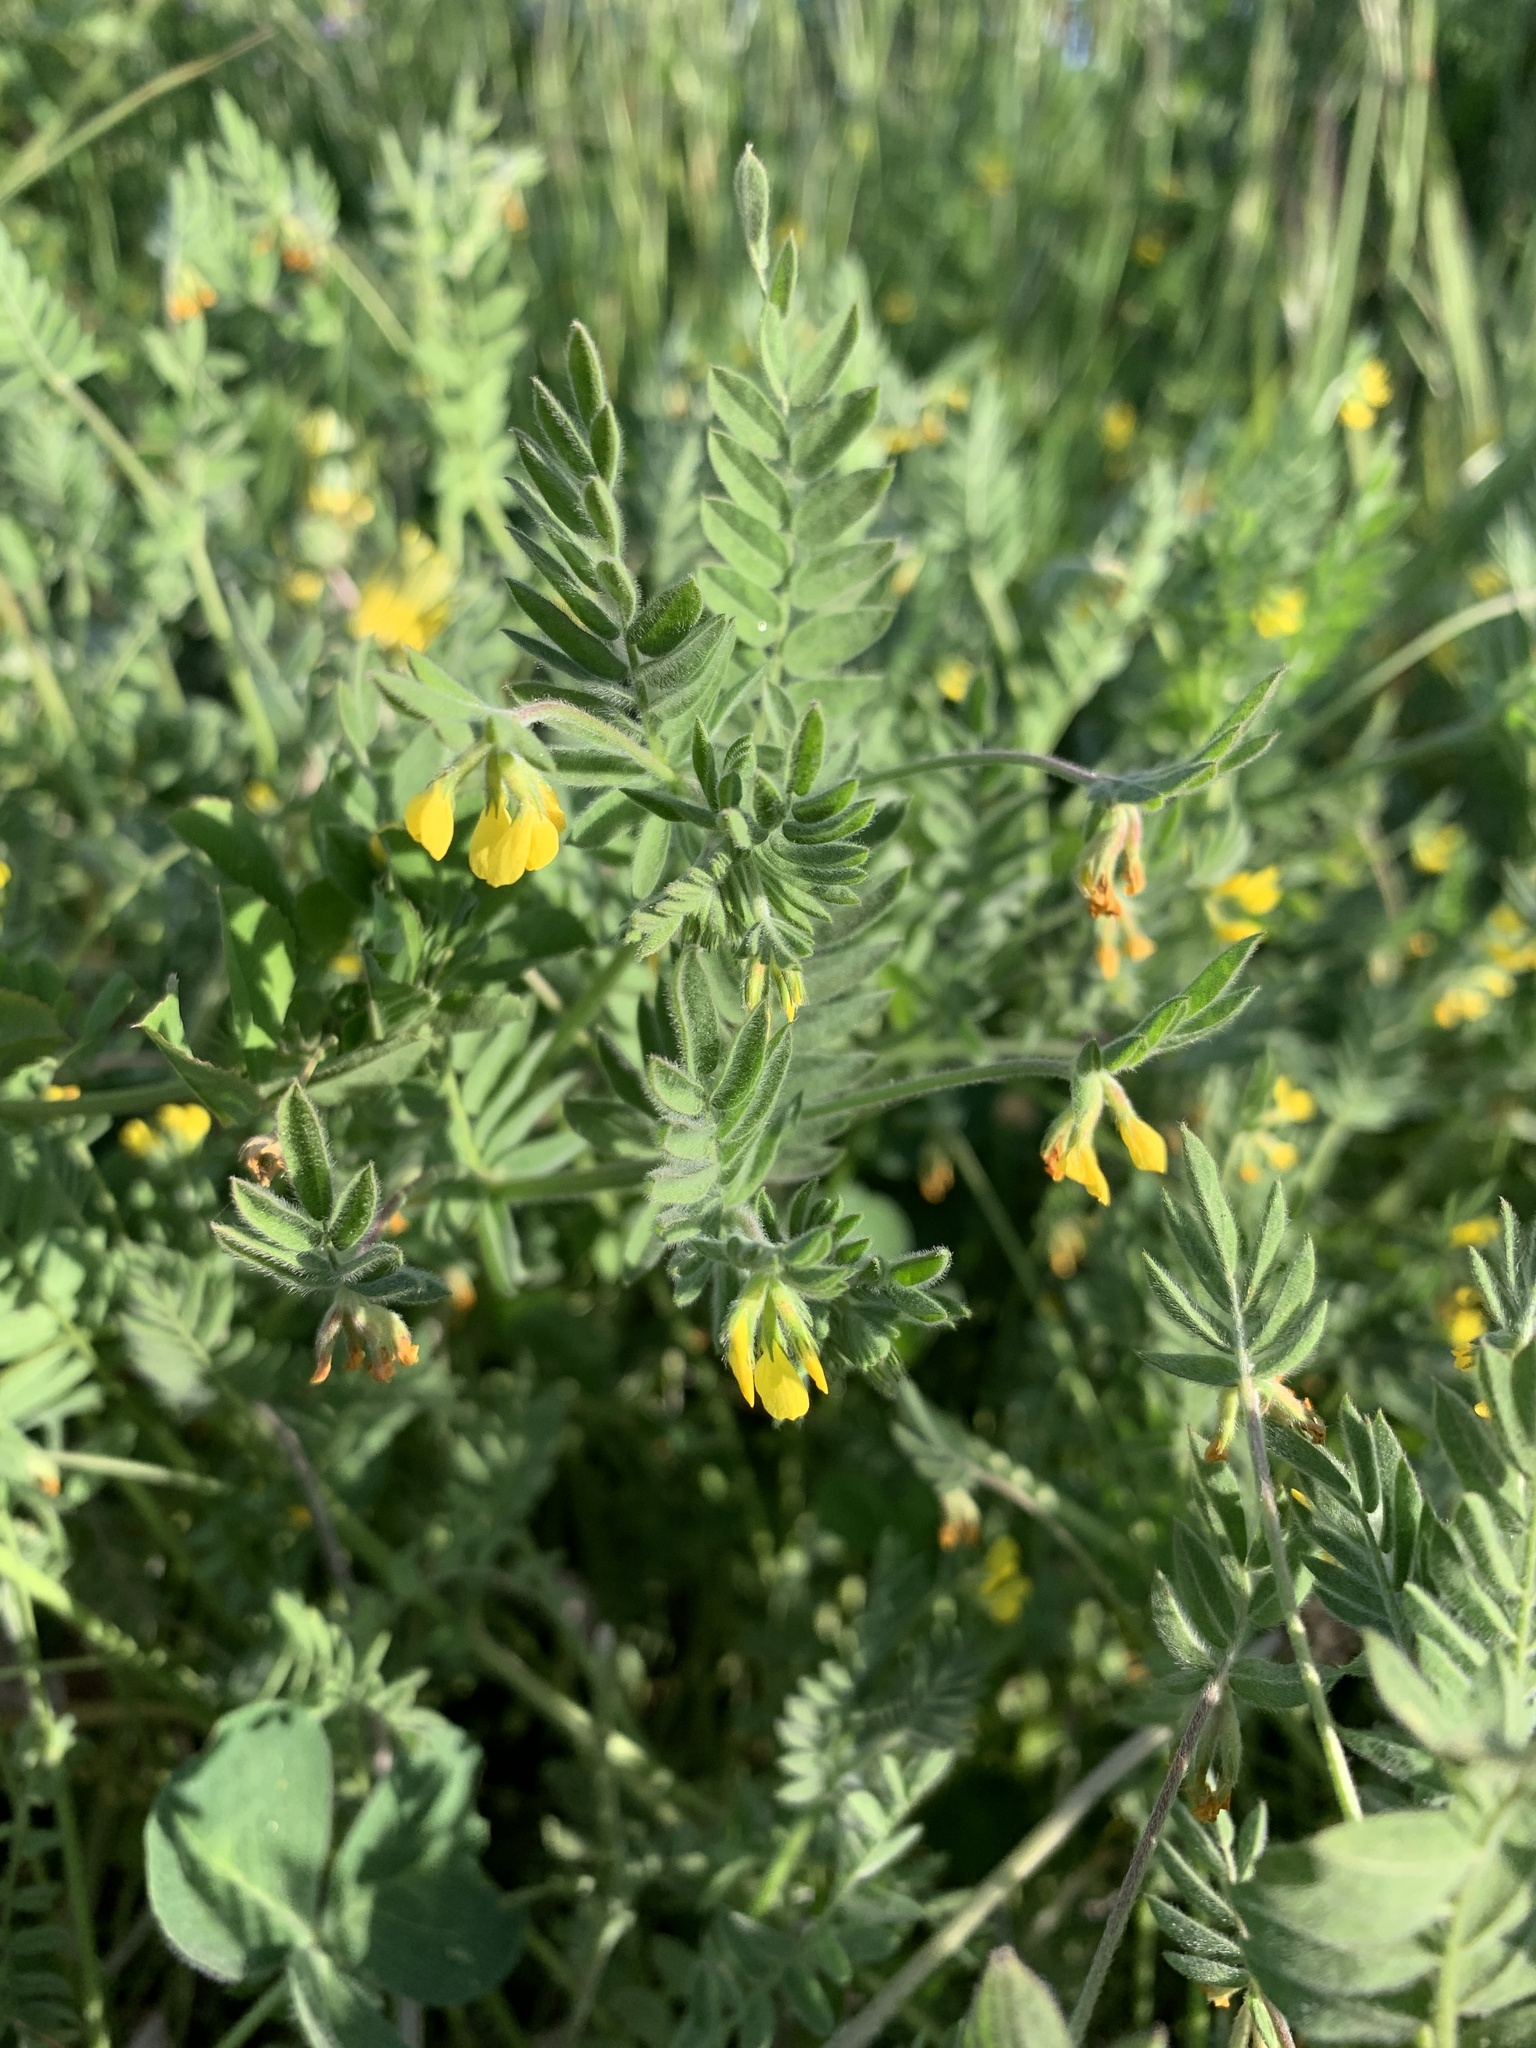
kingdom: Plantae
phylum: Tracheophyta
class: Magnoliopsida
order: Fabales
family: Fabaceae
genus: Ornithopus
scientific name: Ornithopus compressus
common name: Yellow serradella
